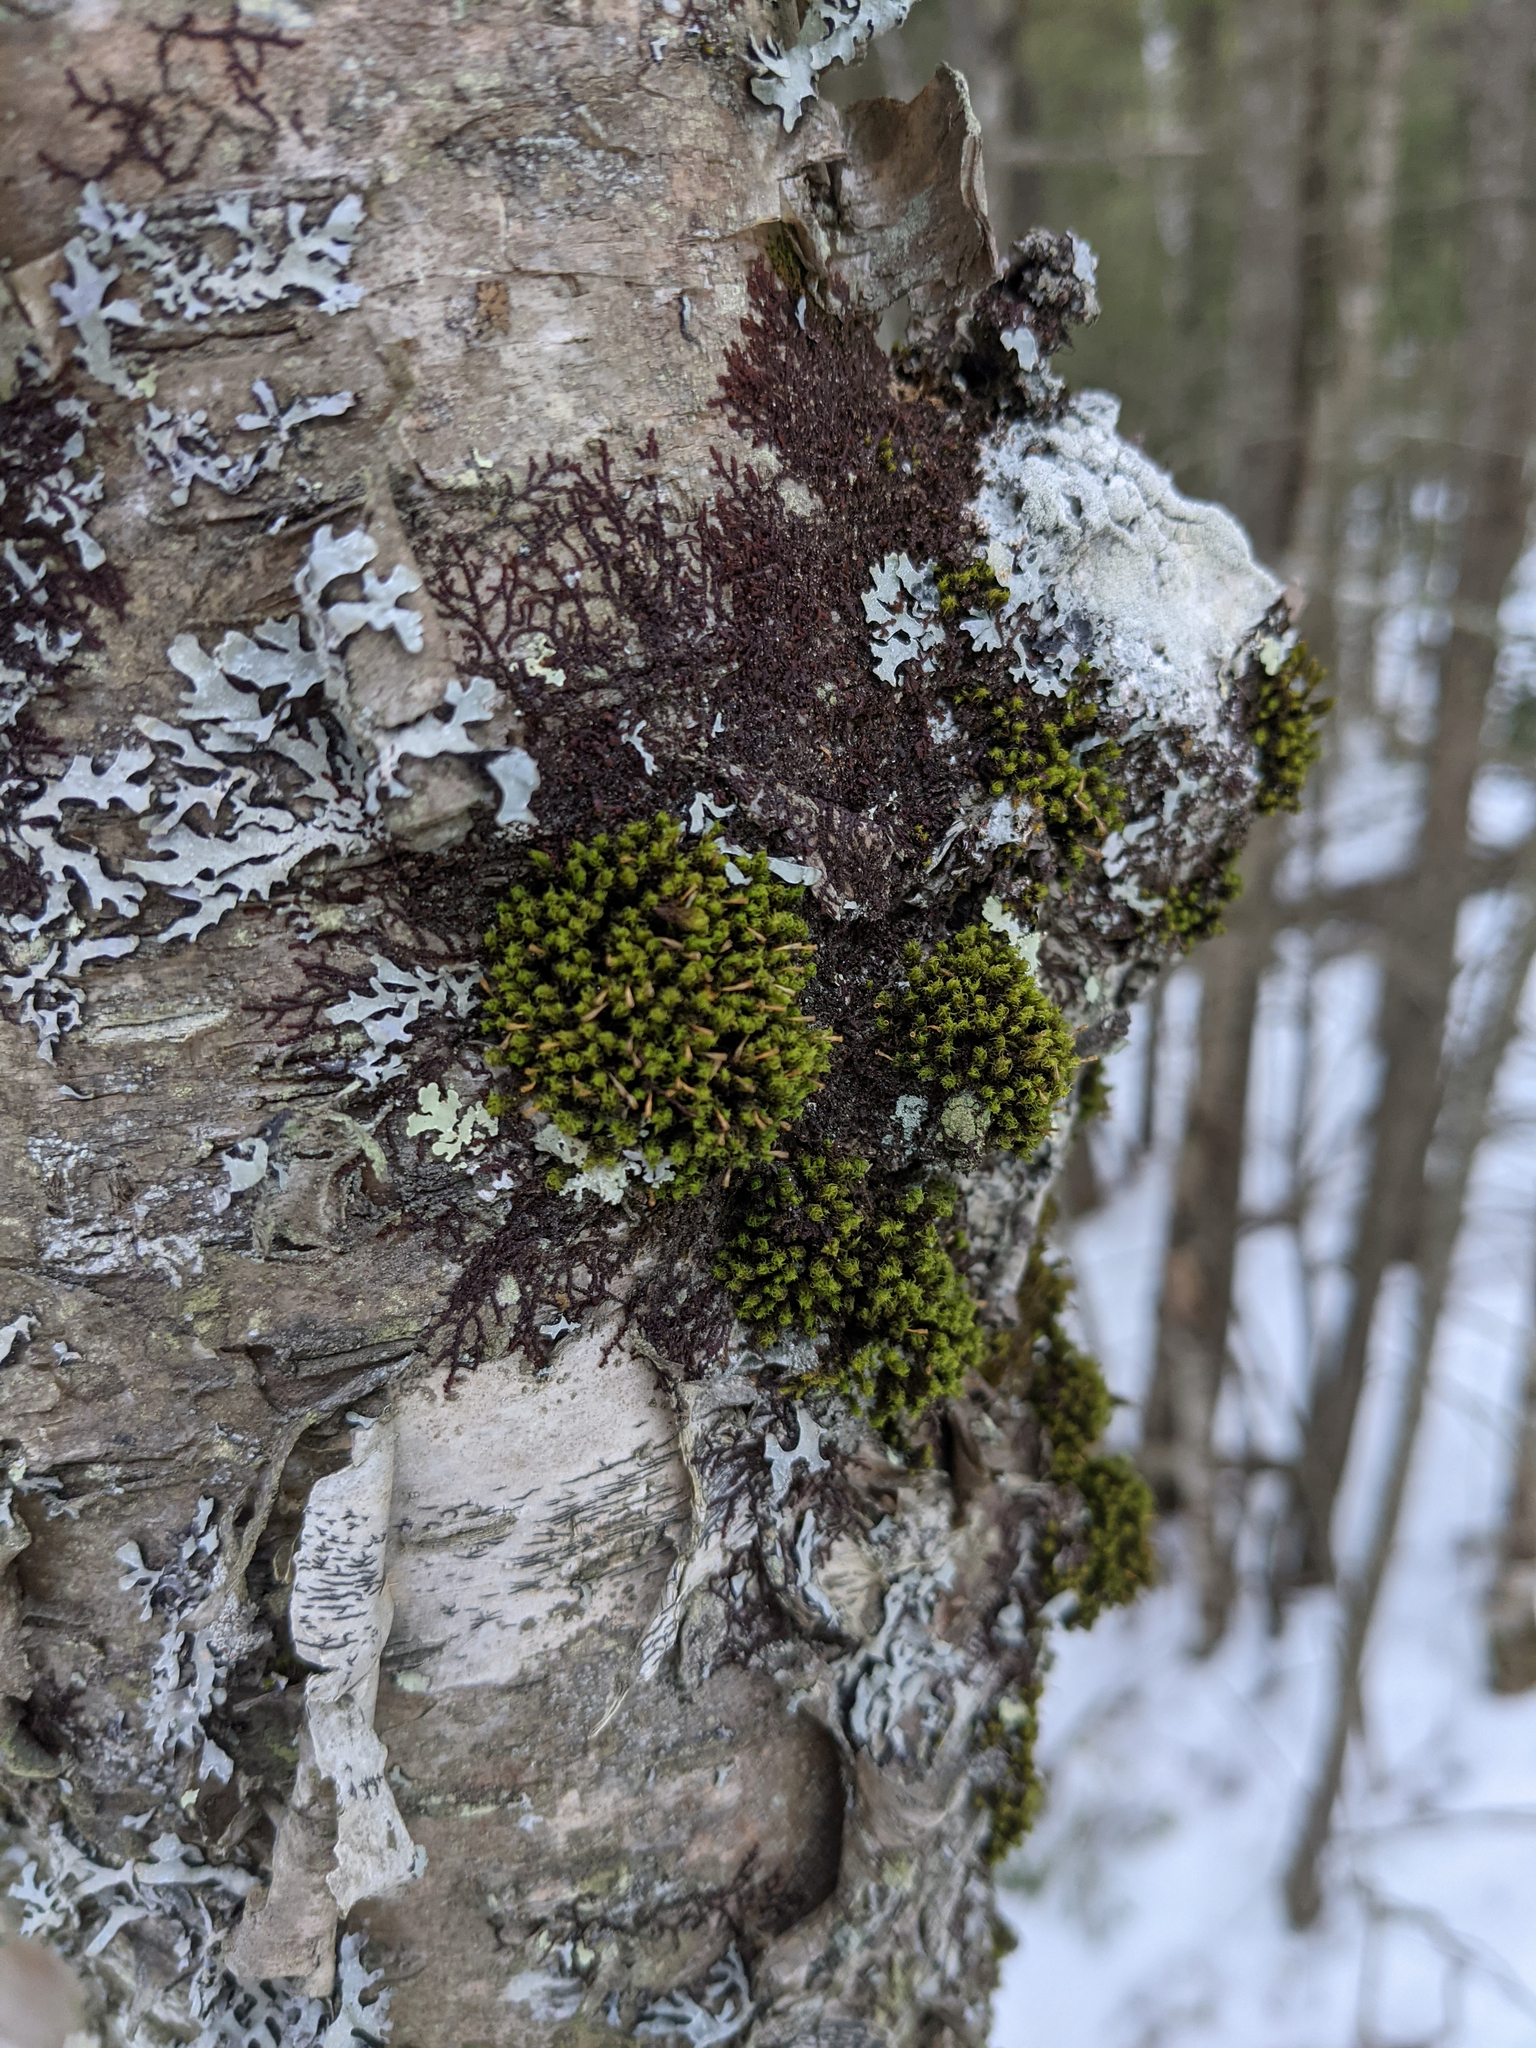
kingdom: Plantae
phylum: Bryophyta
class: Bryopsida
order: Orthotrichales
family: Orthotrichaceae
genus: Ulota
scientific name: Ulota crispa
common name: Crisped pincushion moss
